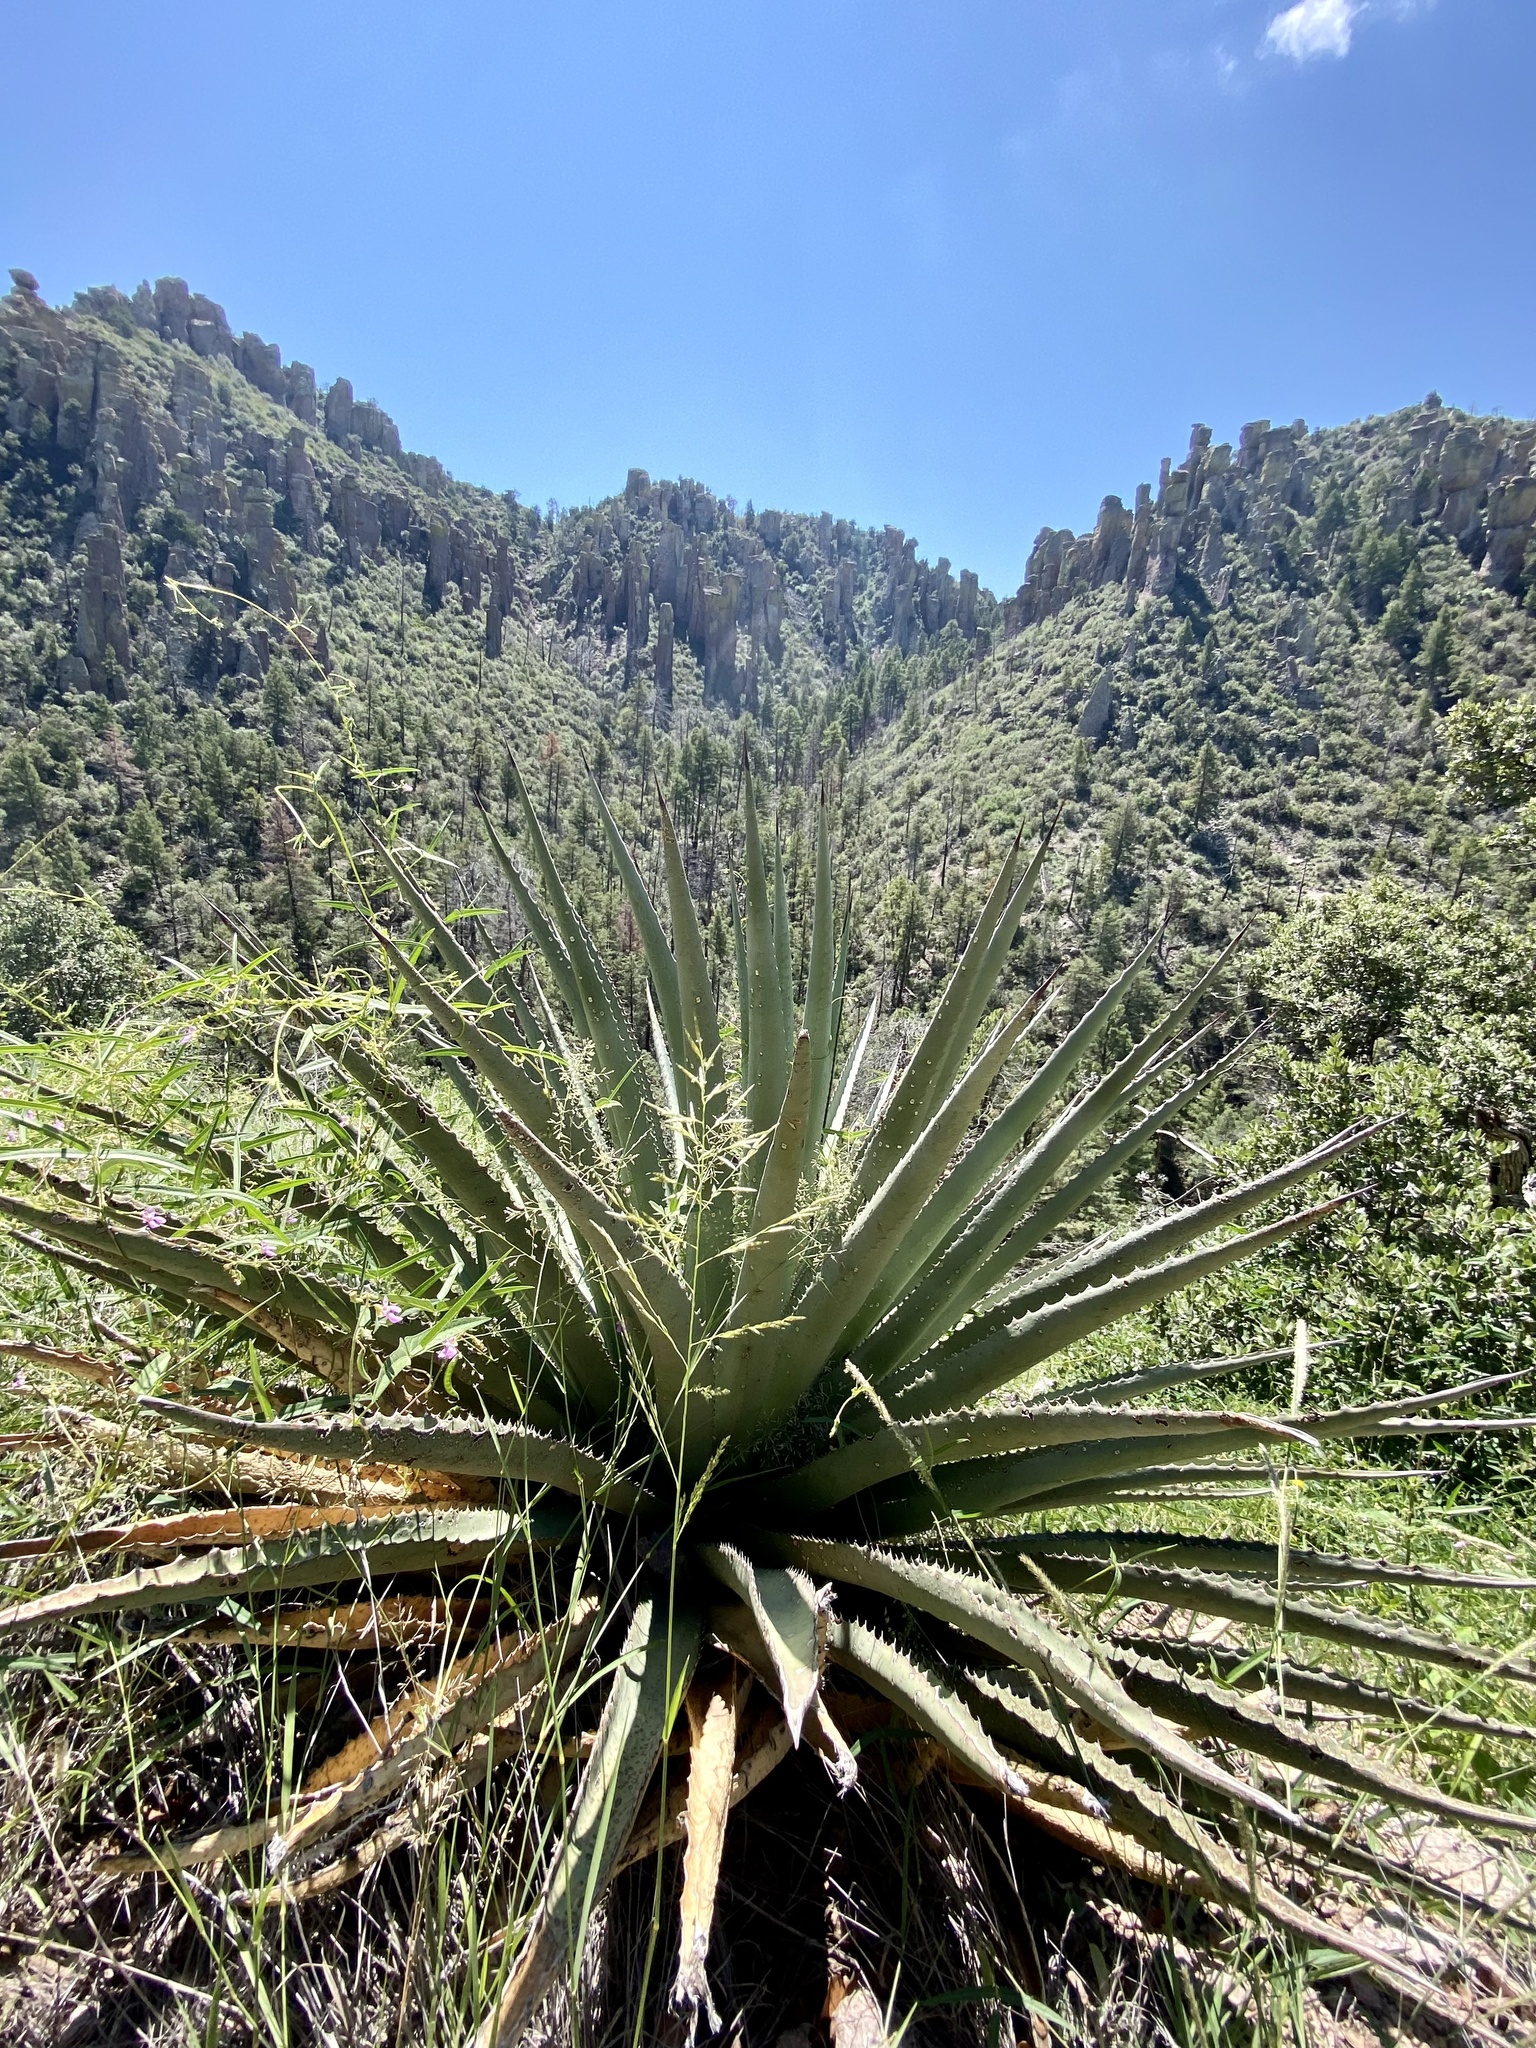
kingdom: Plantae
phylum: Tracheophyta
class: Liliopsida
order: Asparagales
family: Asparagaceae
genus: Agave
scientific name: Agave palmeri
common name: Palmer agave
